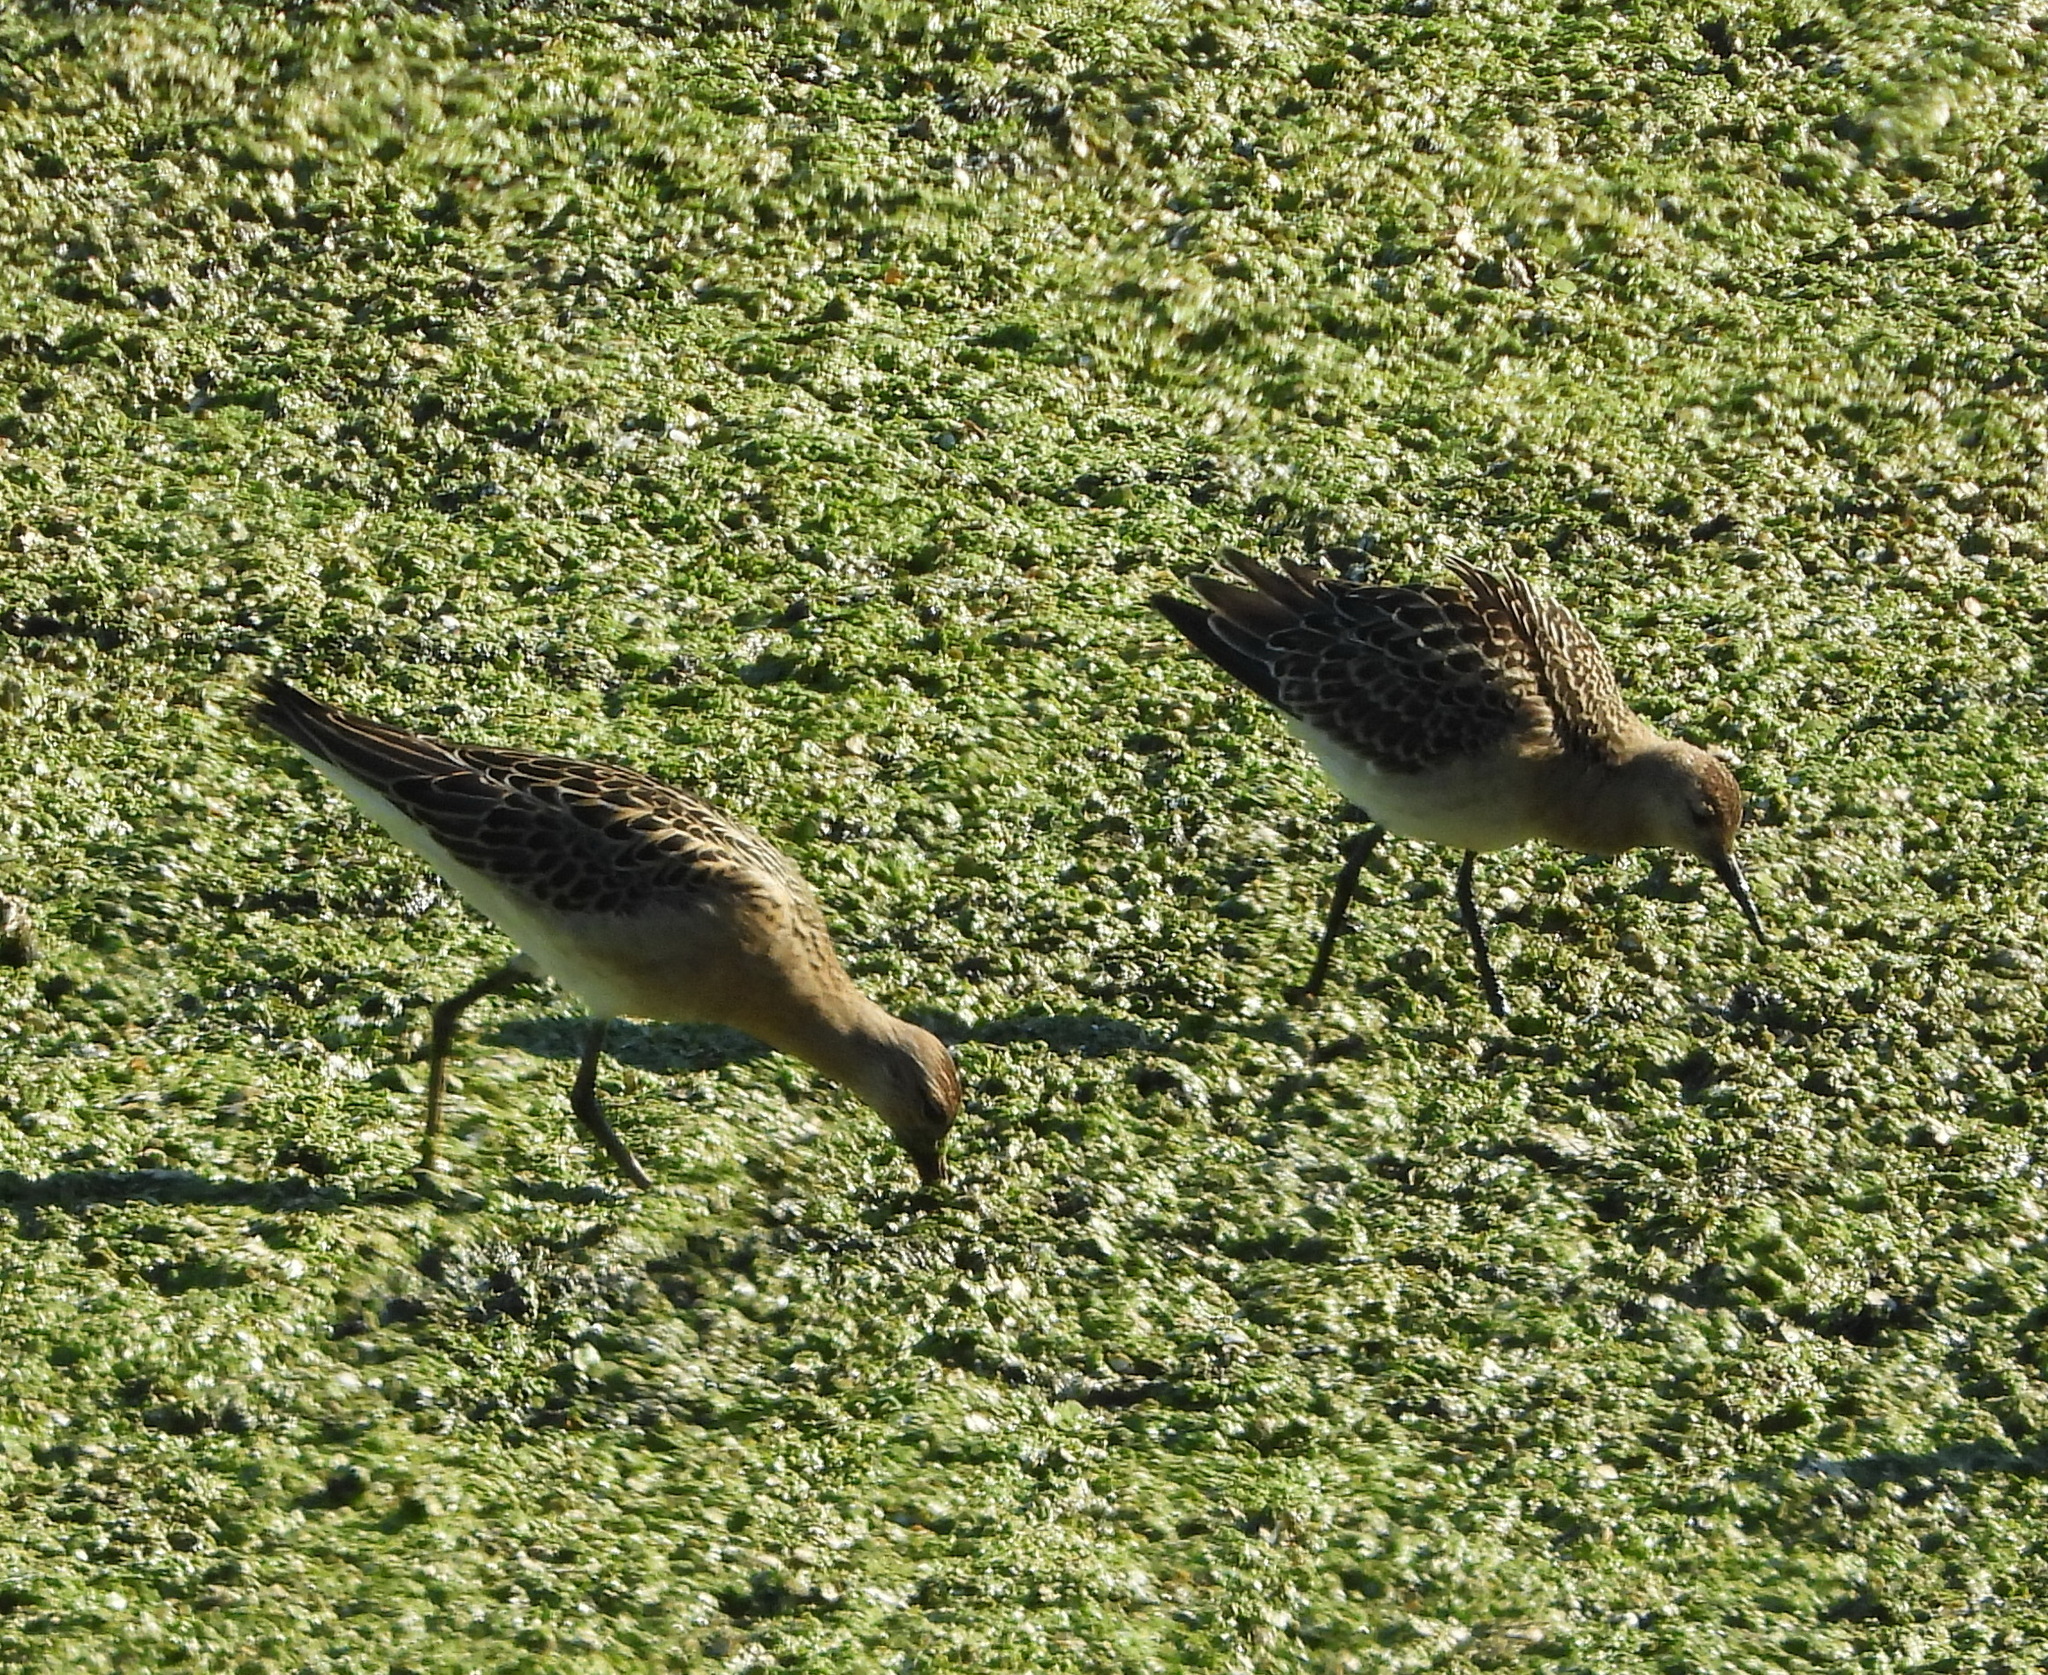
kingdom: Animalia
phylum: Chordata
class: Aves
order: Charadriiformes
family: Scolopacidae
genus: Calidris
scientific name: Calidris pugnax
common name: Ruff
